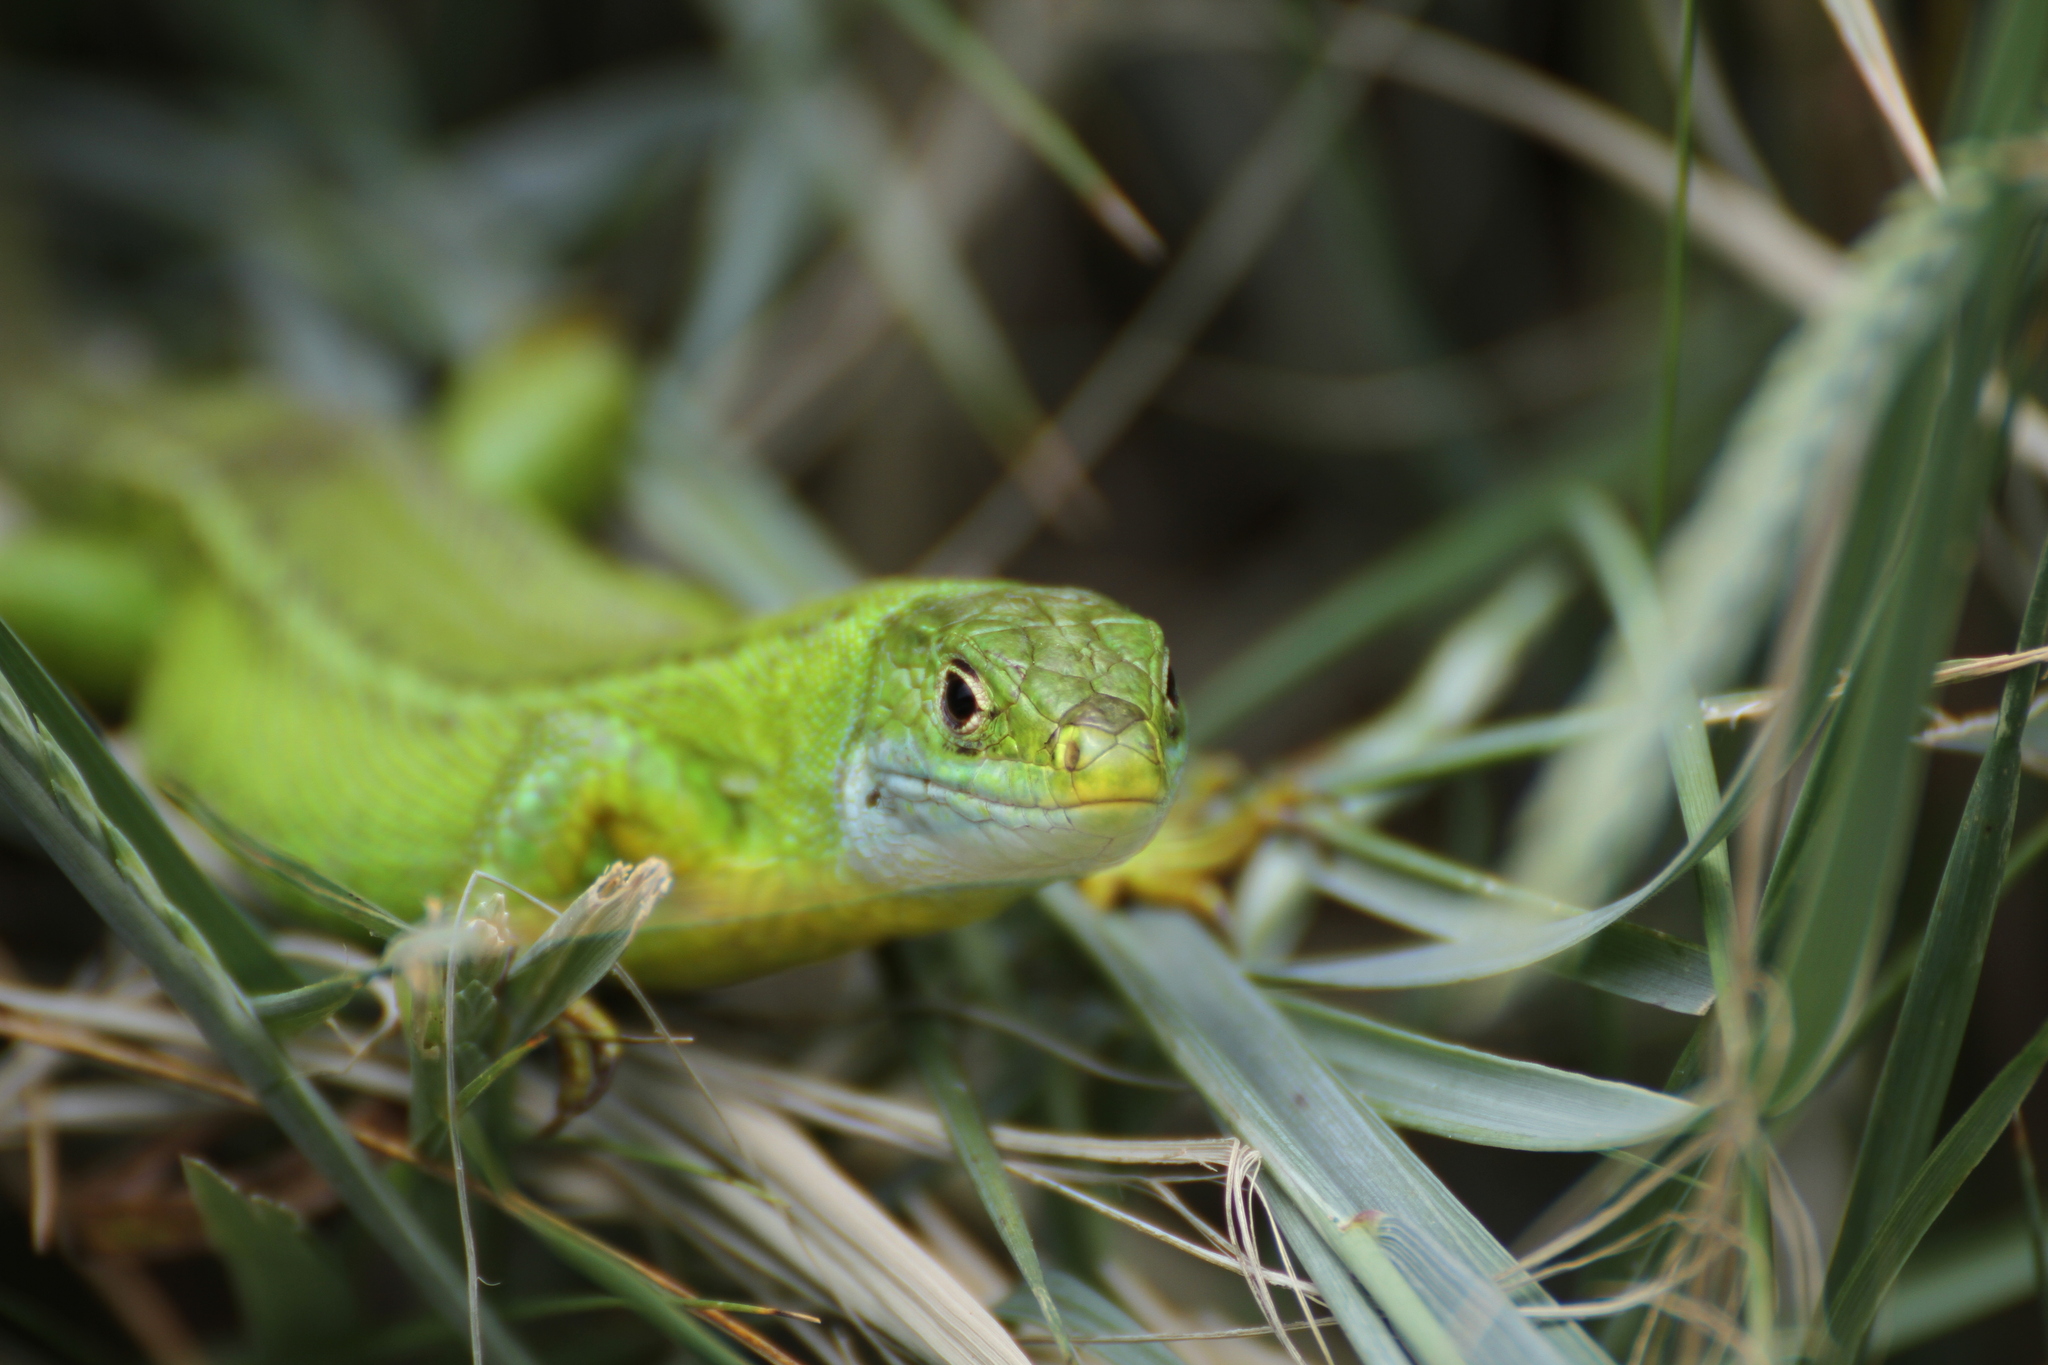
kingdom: Animalia
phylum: Chordata
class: Squamata
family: Lacertidae
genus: Lacerta
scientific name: Lacerta bilineata
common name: Western green lizard
